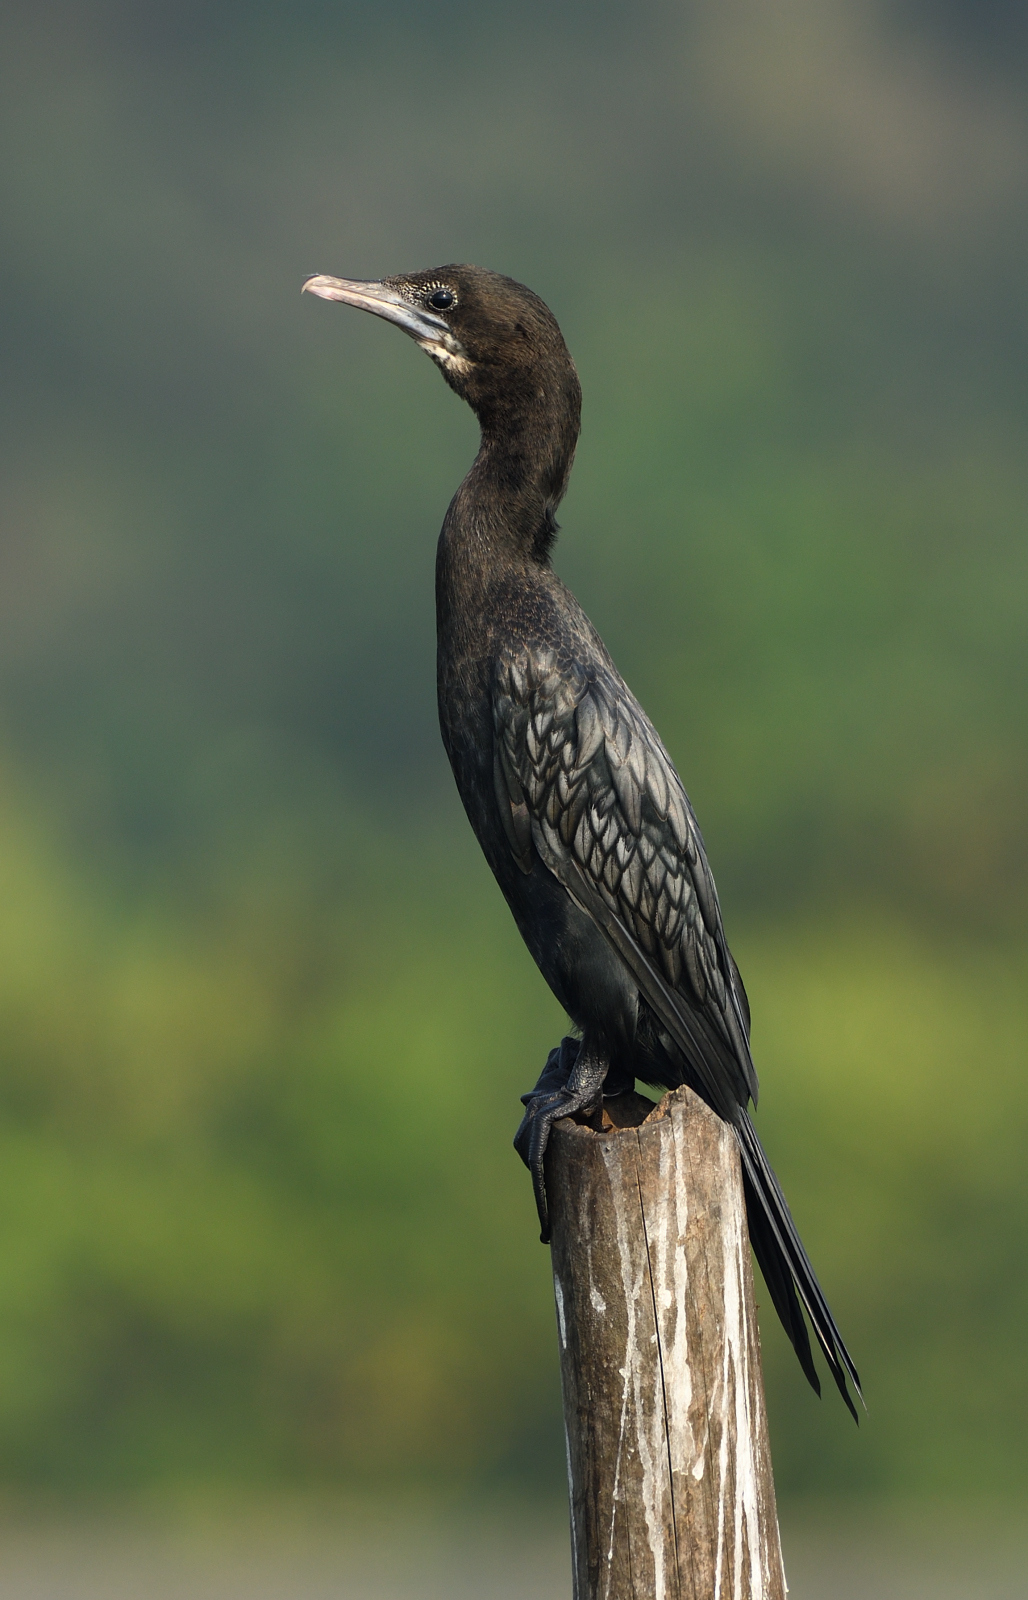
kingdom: Animalia
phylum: Chordata
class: Aves
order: Suliformes
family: Phalacrocoracidae
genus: Microcarbo
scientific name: Microcarbo niger
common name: Little cormorant
